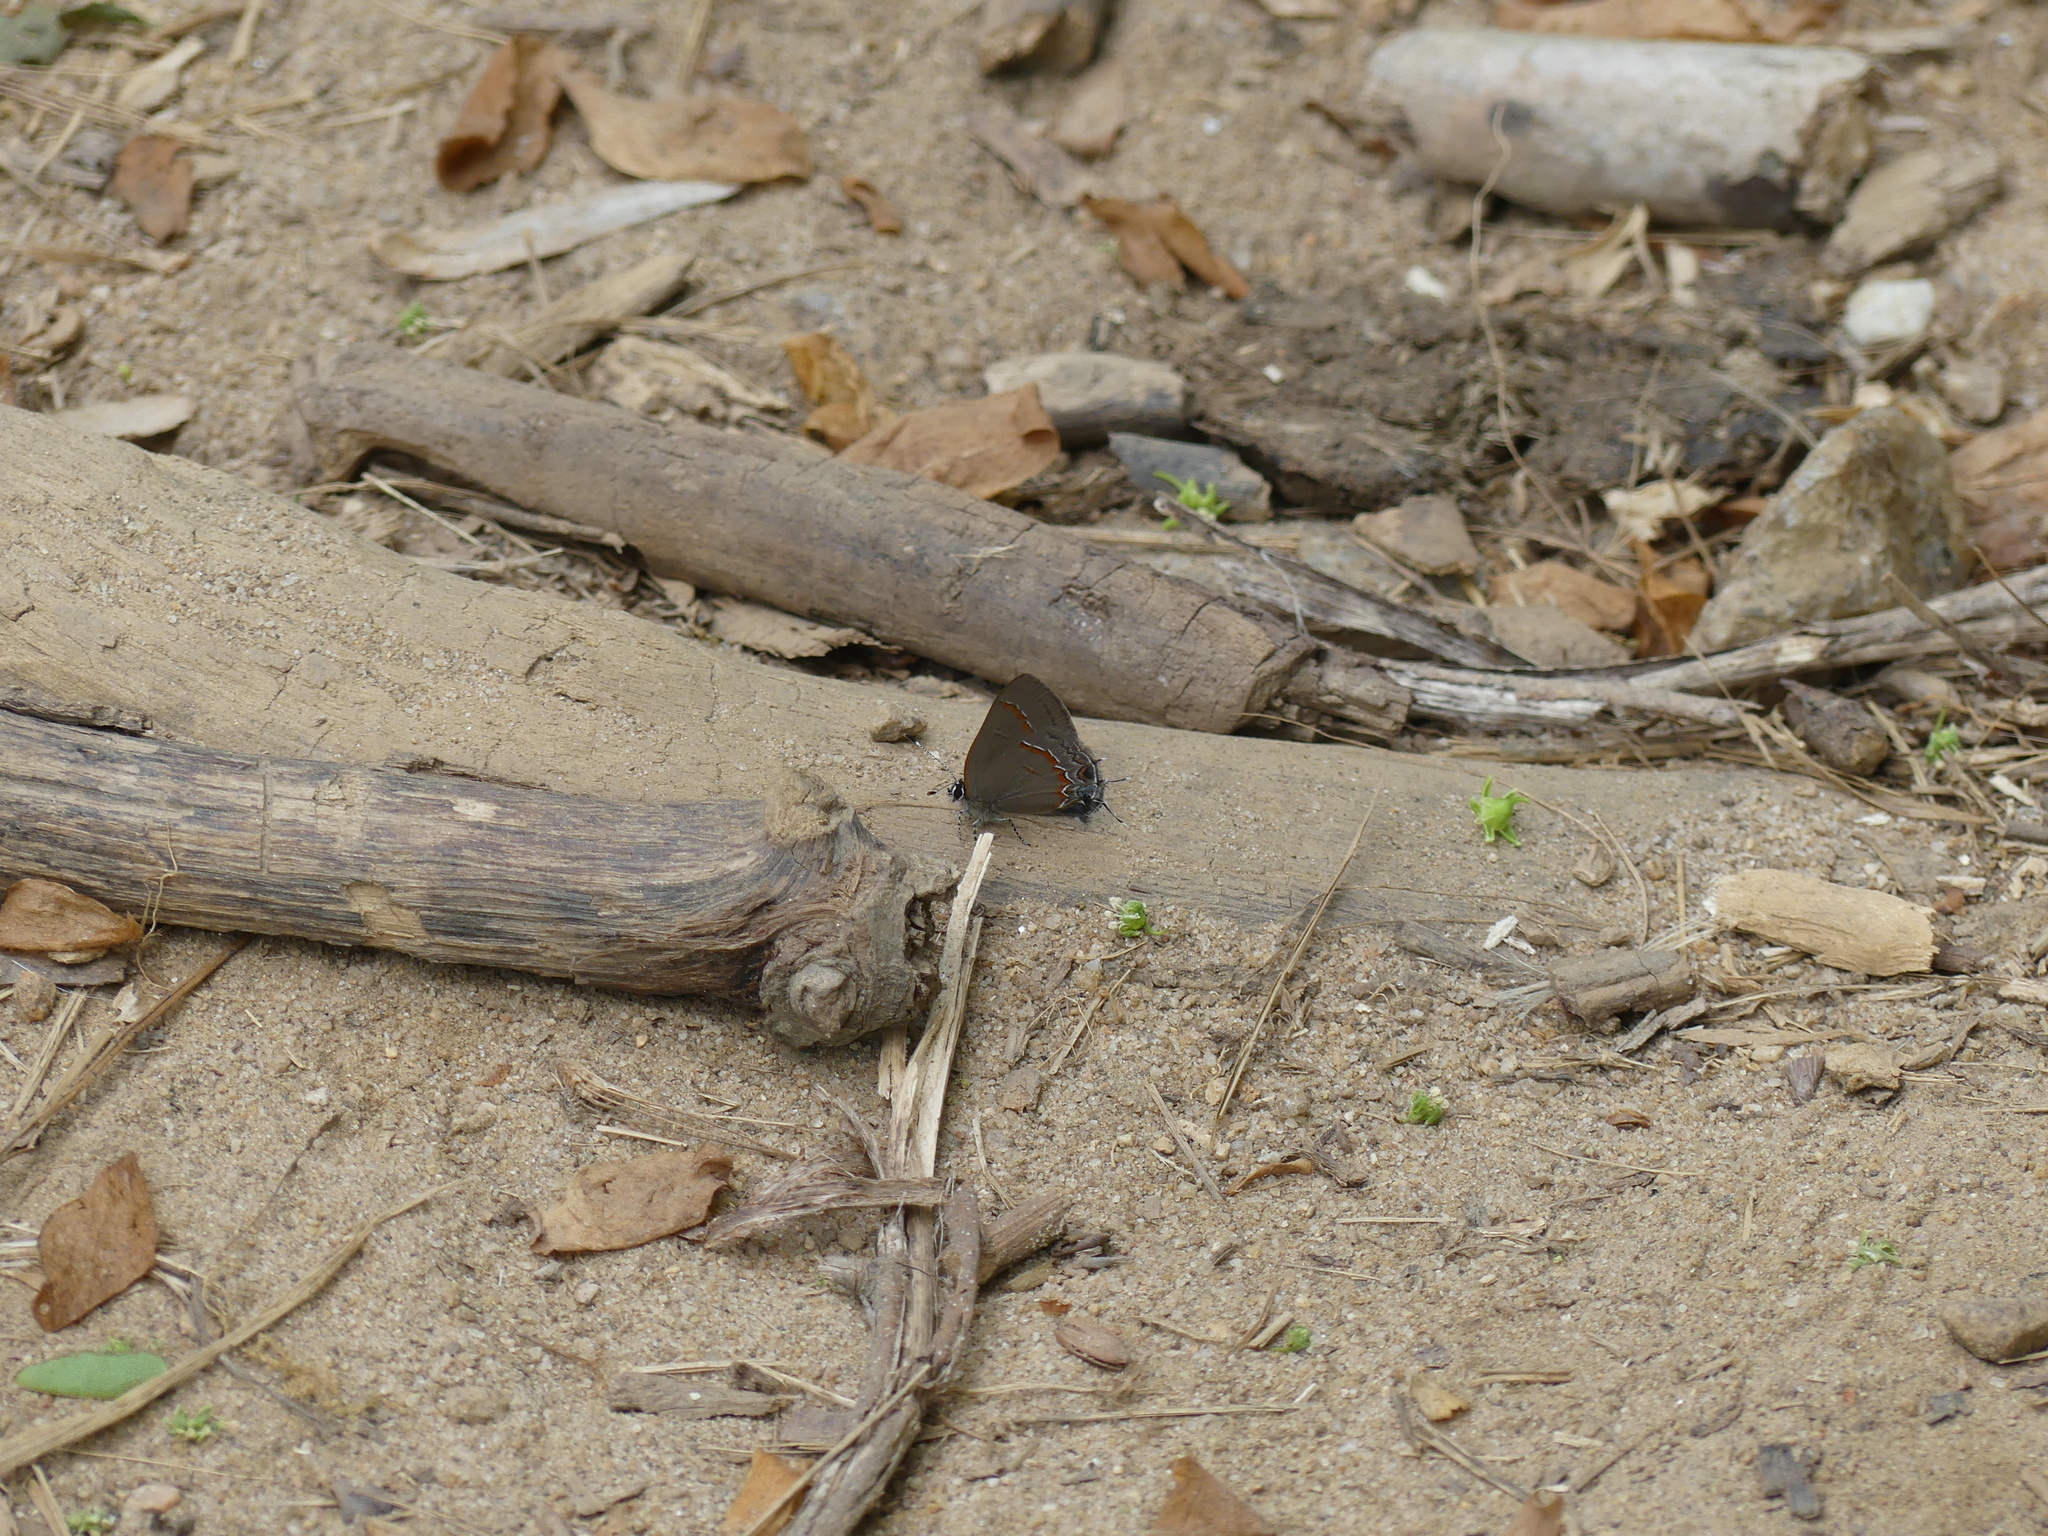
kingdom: Animalia
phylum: Arthropoda
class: Insecta
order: Lepidoptera
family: Lycaenidae
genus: Calycopis
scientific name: Calycopis cecrops
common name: Red-banded hairstreak
